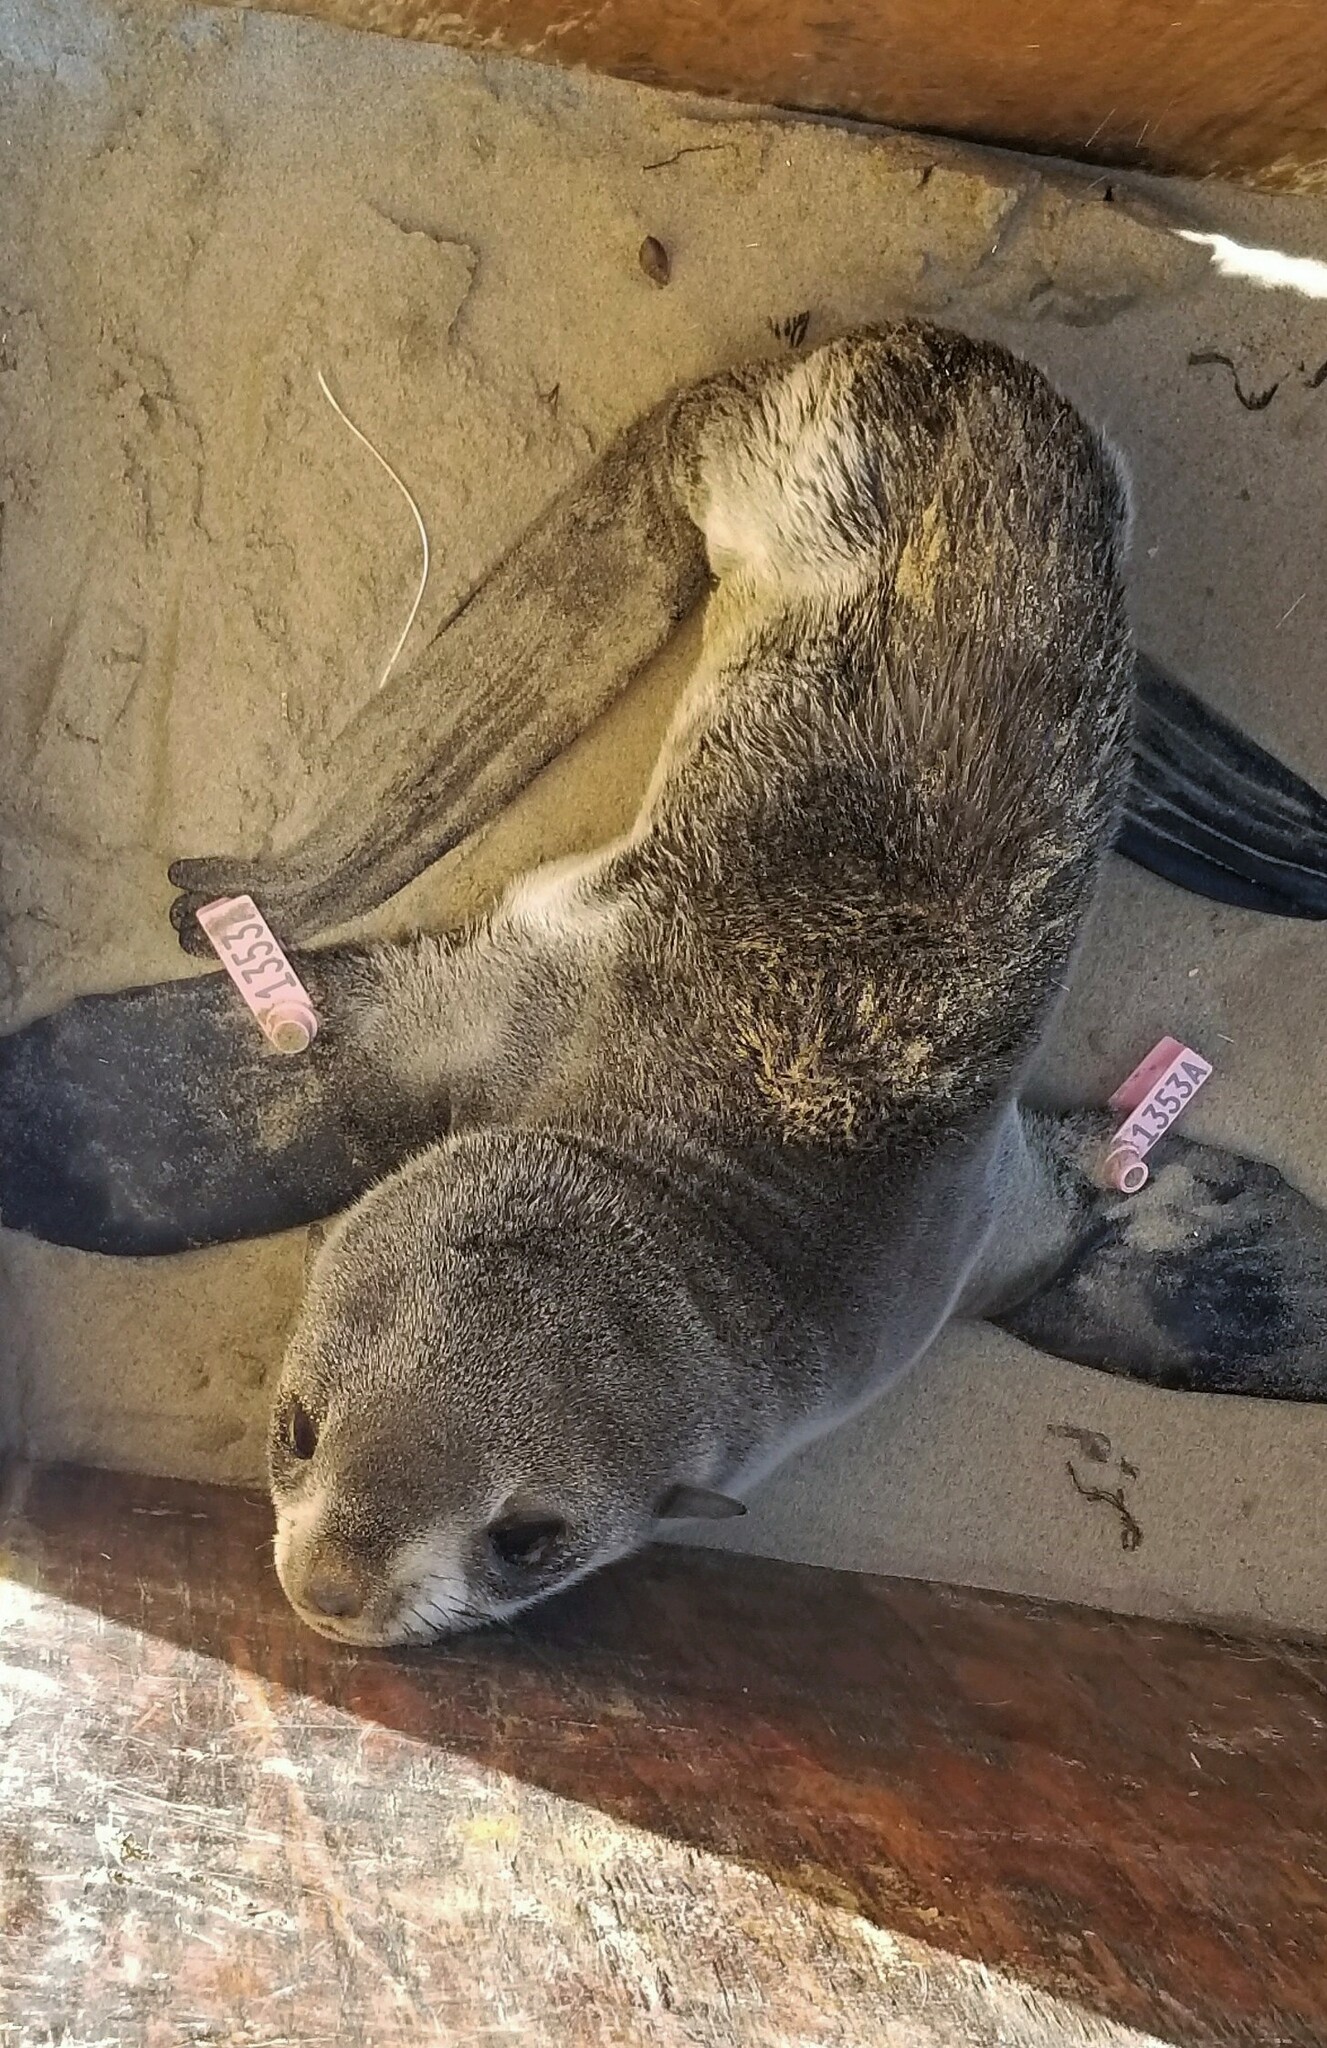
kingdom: Animalia
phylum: Chordata
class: Mammalia
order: Carnivora
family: Otariidae
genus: Callorhinus
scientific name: Callorhinus ursinus
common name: Northern fur seal
